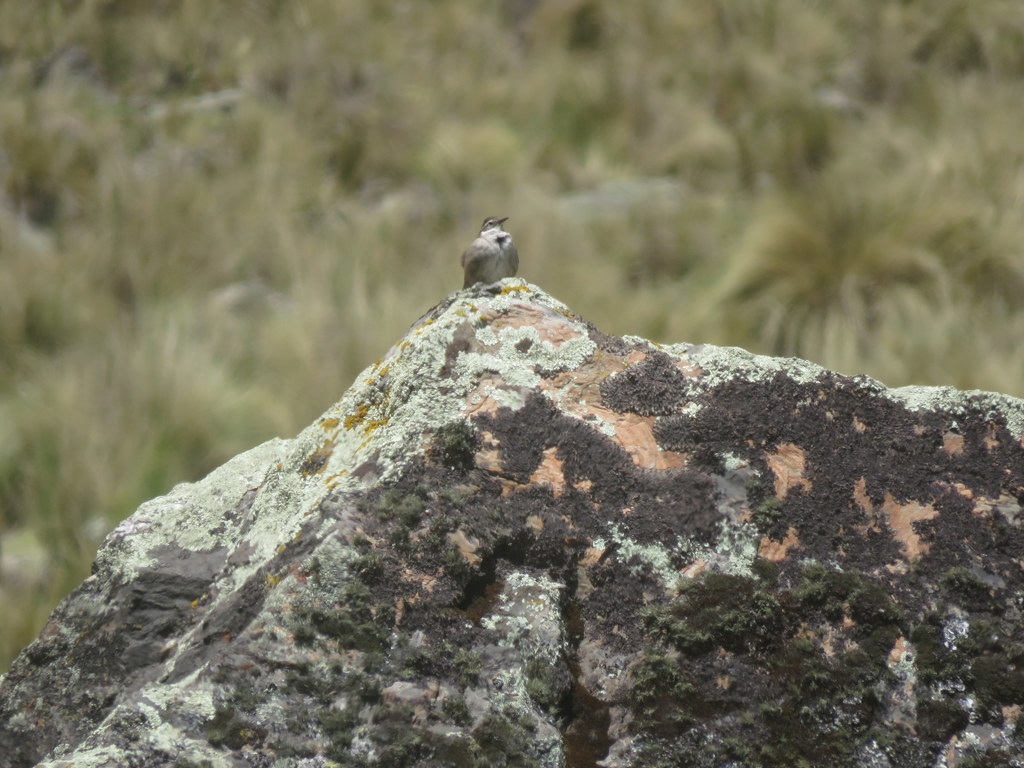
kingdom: Animalia
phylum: Chordata
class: Aves
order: Passeriformes
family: Furnariidae
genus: Cinclodes
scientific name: Cinclodes fuscus
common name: Buff-winged cinclodes
